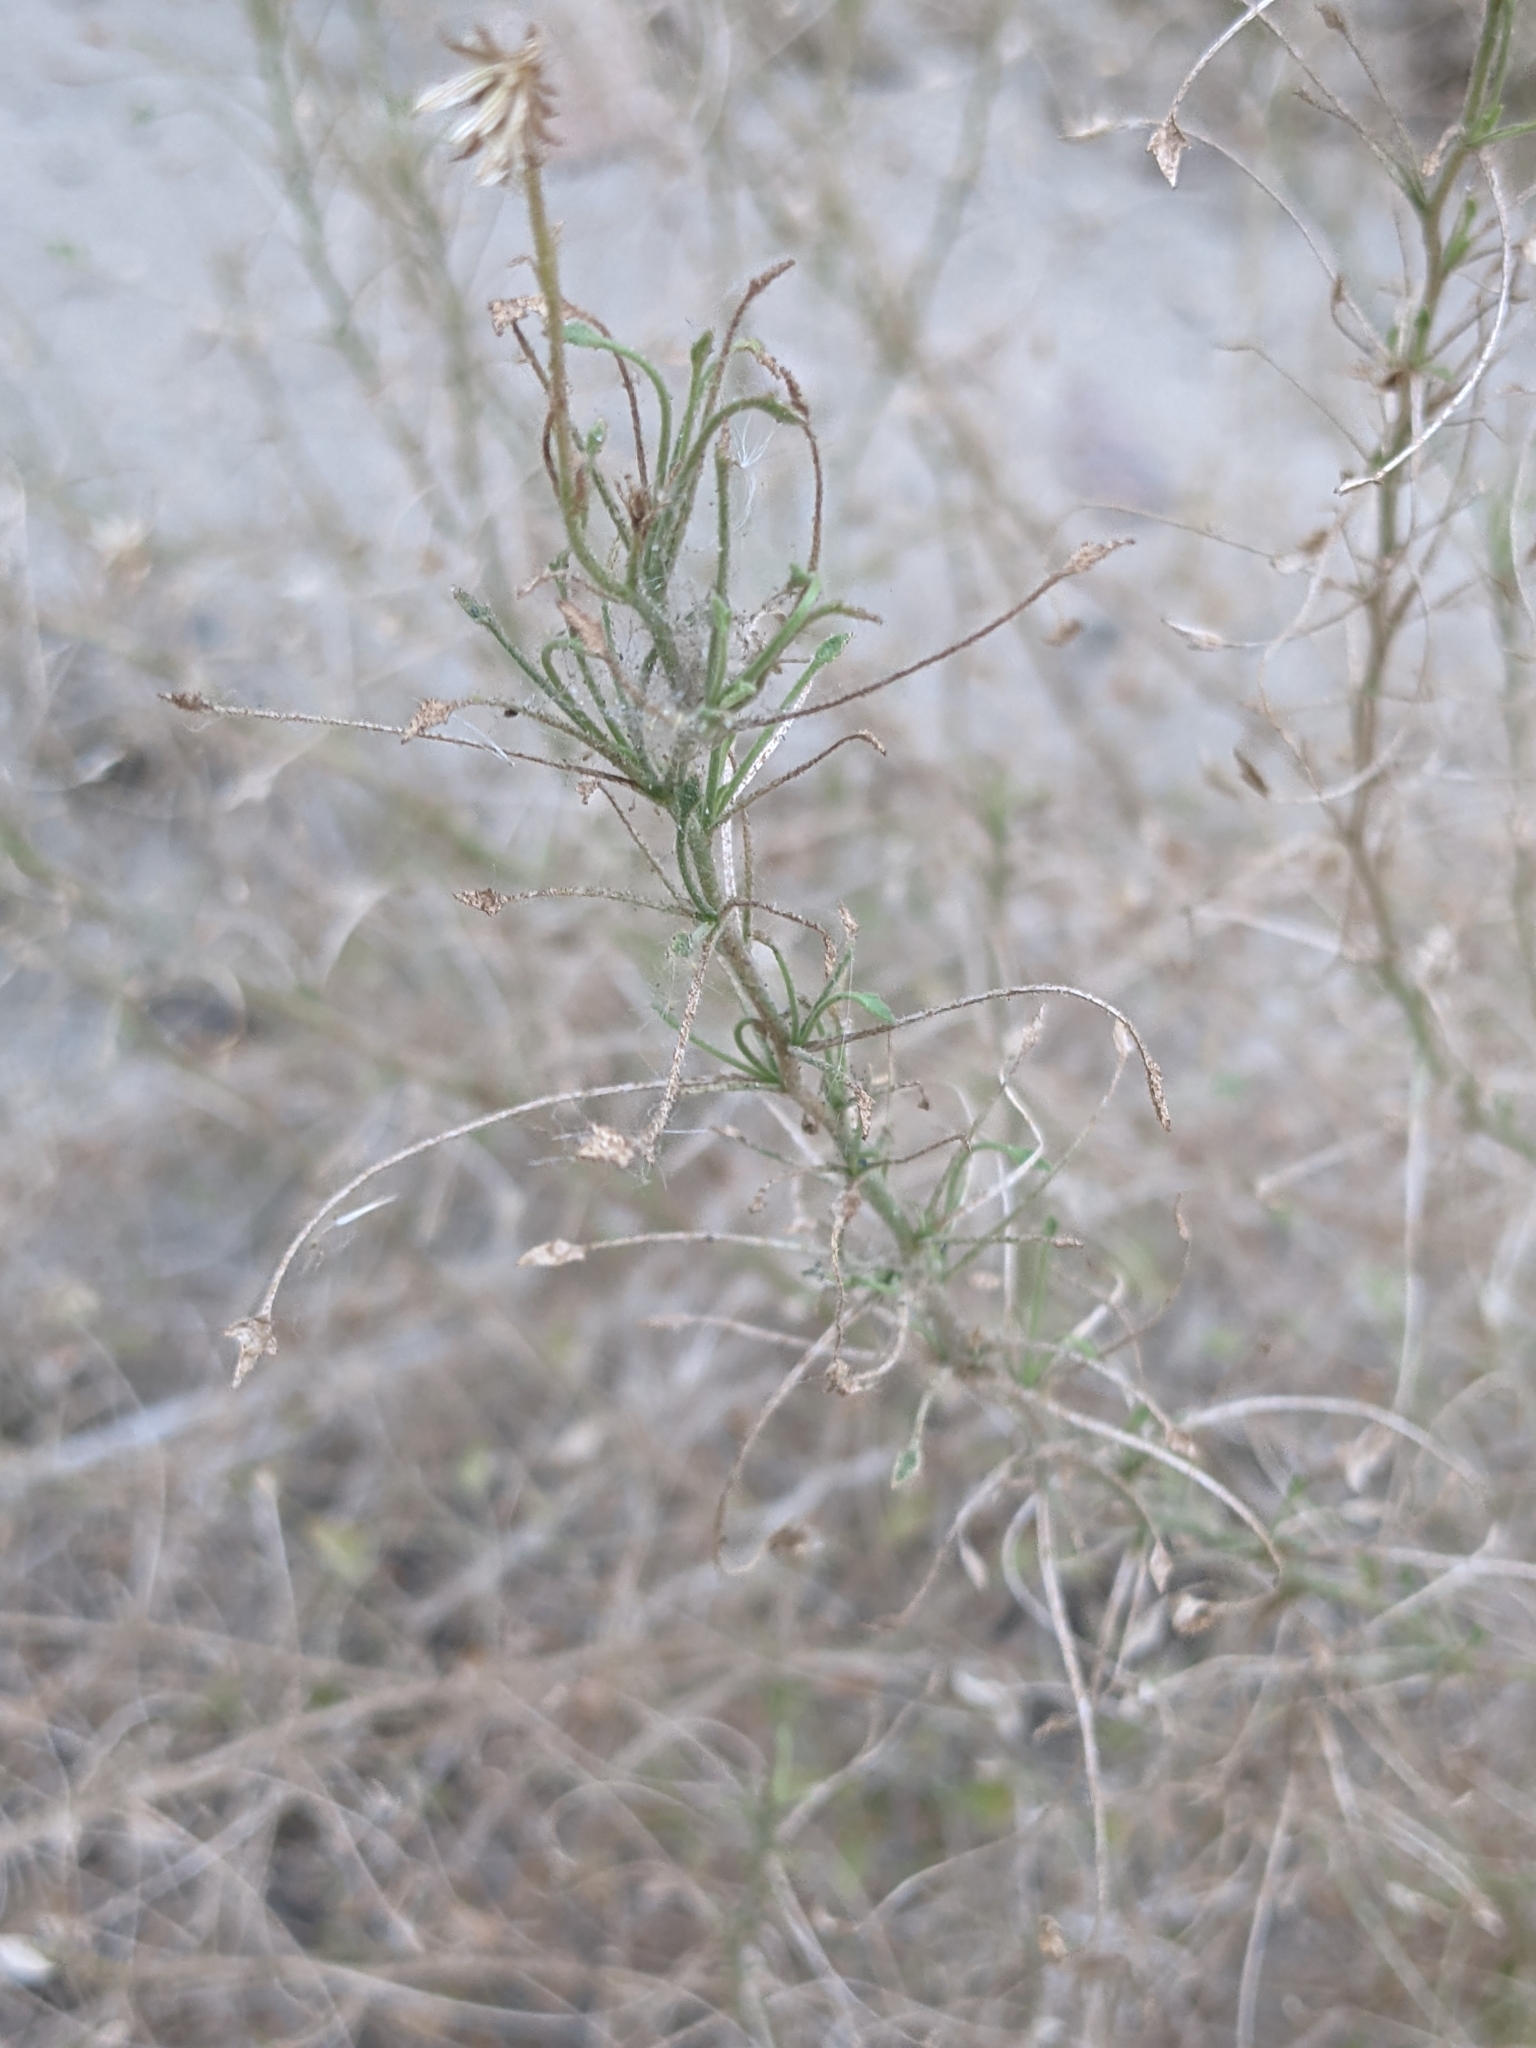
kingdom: Plantae
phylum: Tracheophyta
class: Magnoliopsida
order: Asterales
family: Asteraceae
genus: Pleurocoronis
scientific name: Pleurocoronis pluriseta
